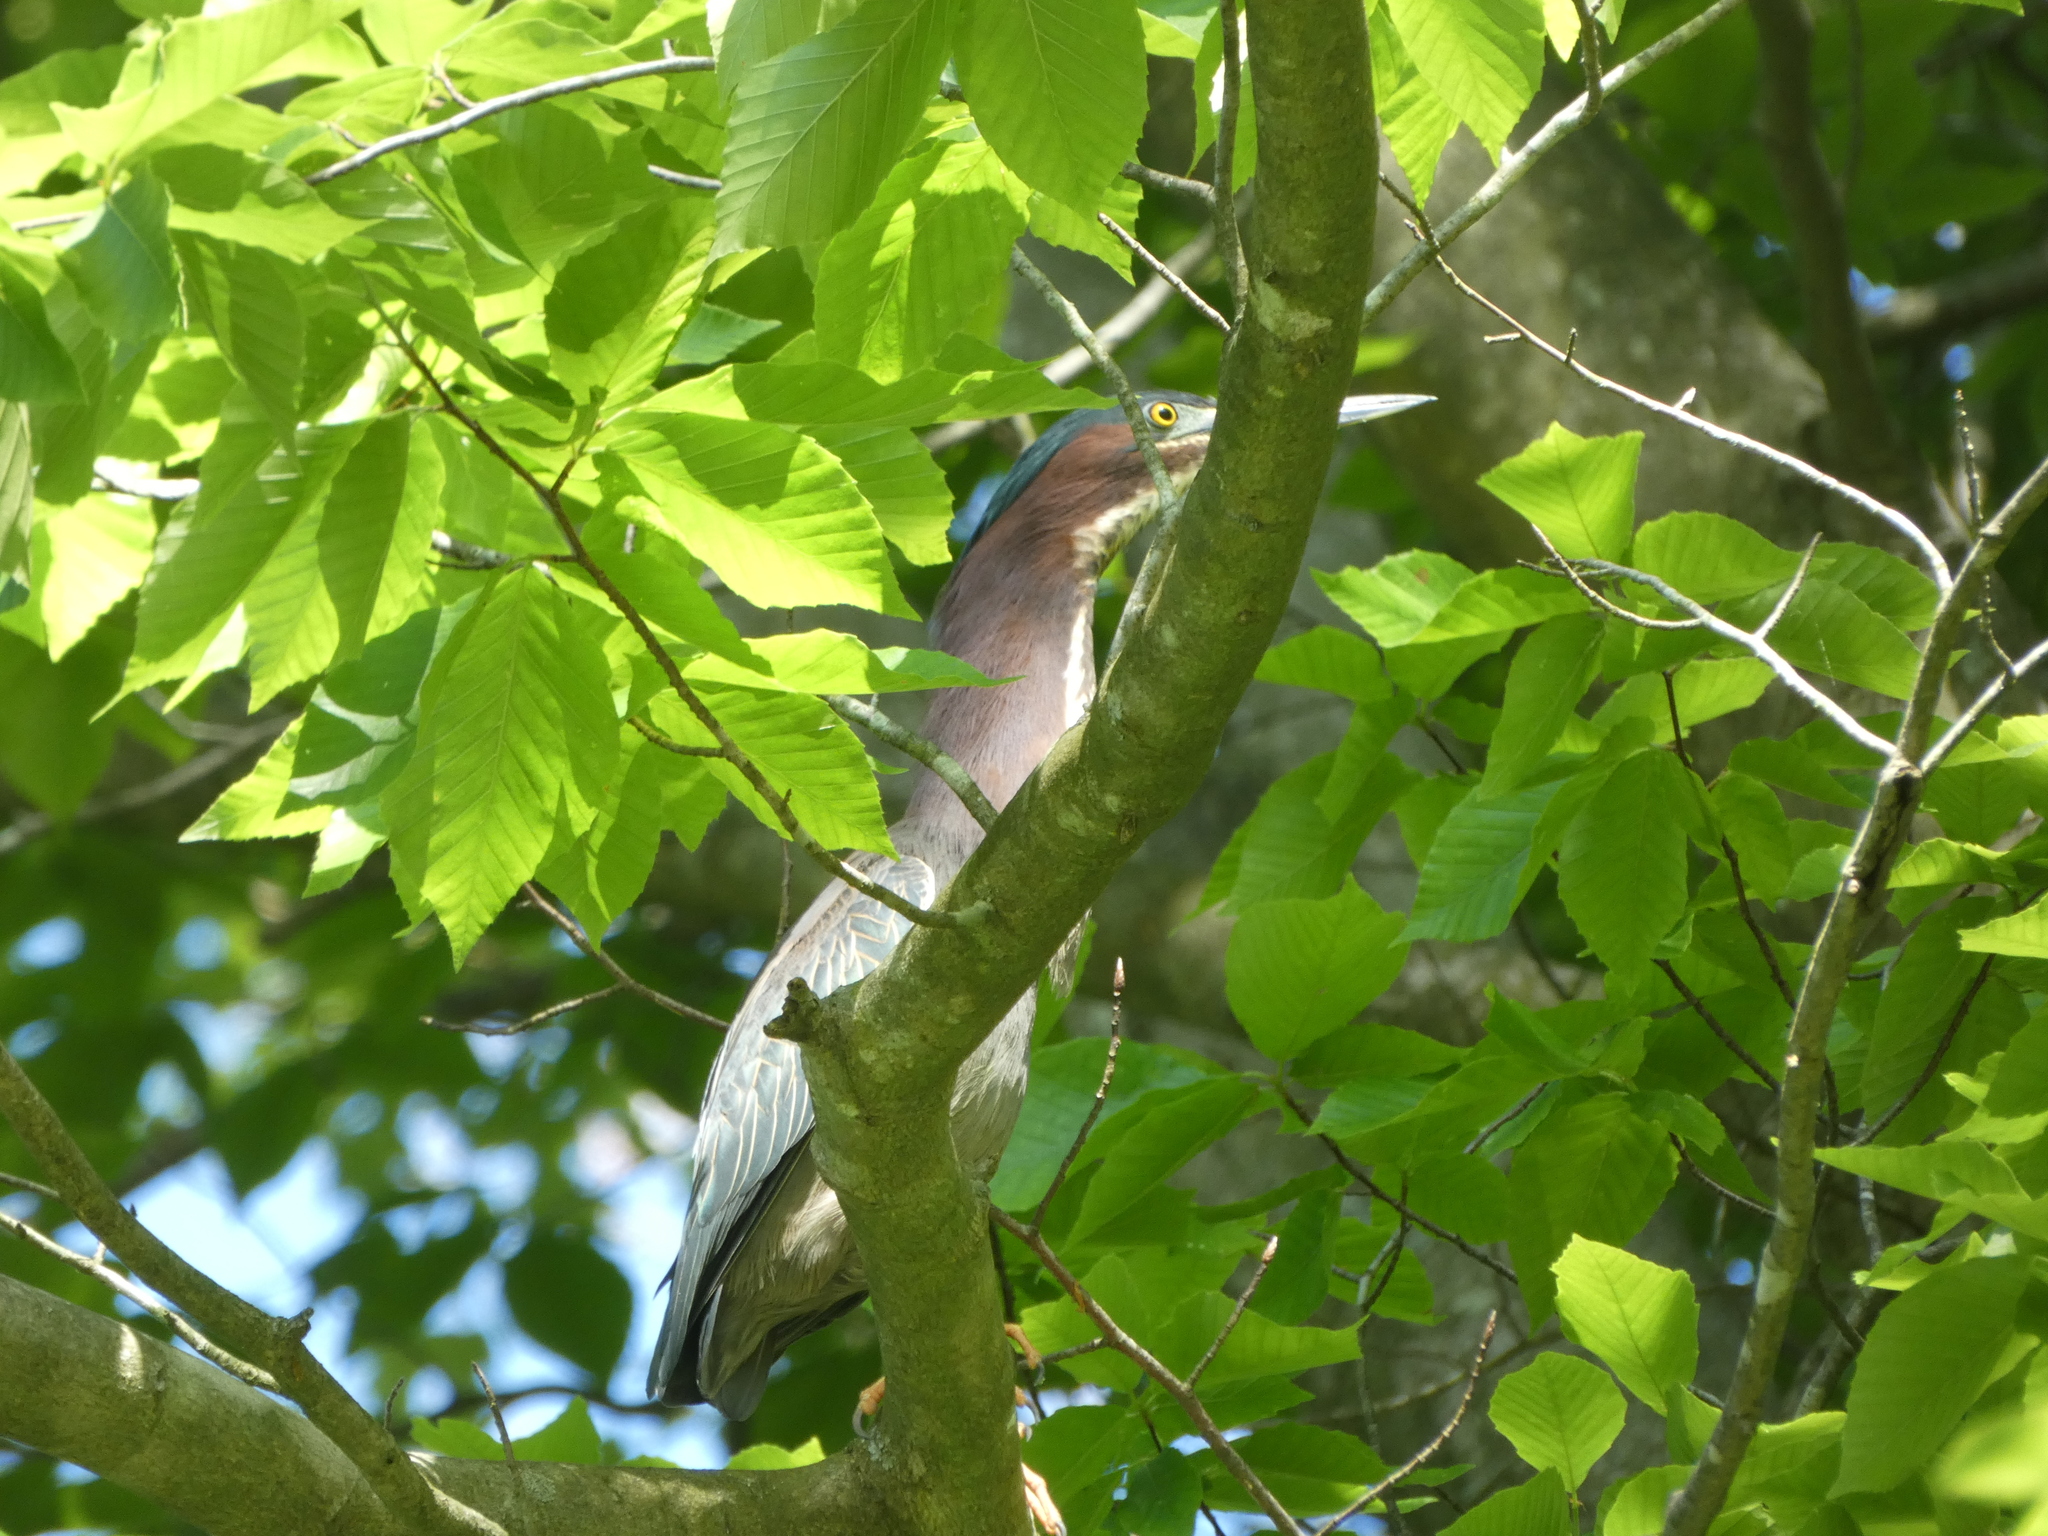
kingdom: Animalia
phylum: Chordata
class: Aves
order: Pelecaniformes
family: Ardeidae
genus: Butorides
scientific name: Butorides virescens
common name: Green heron
